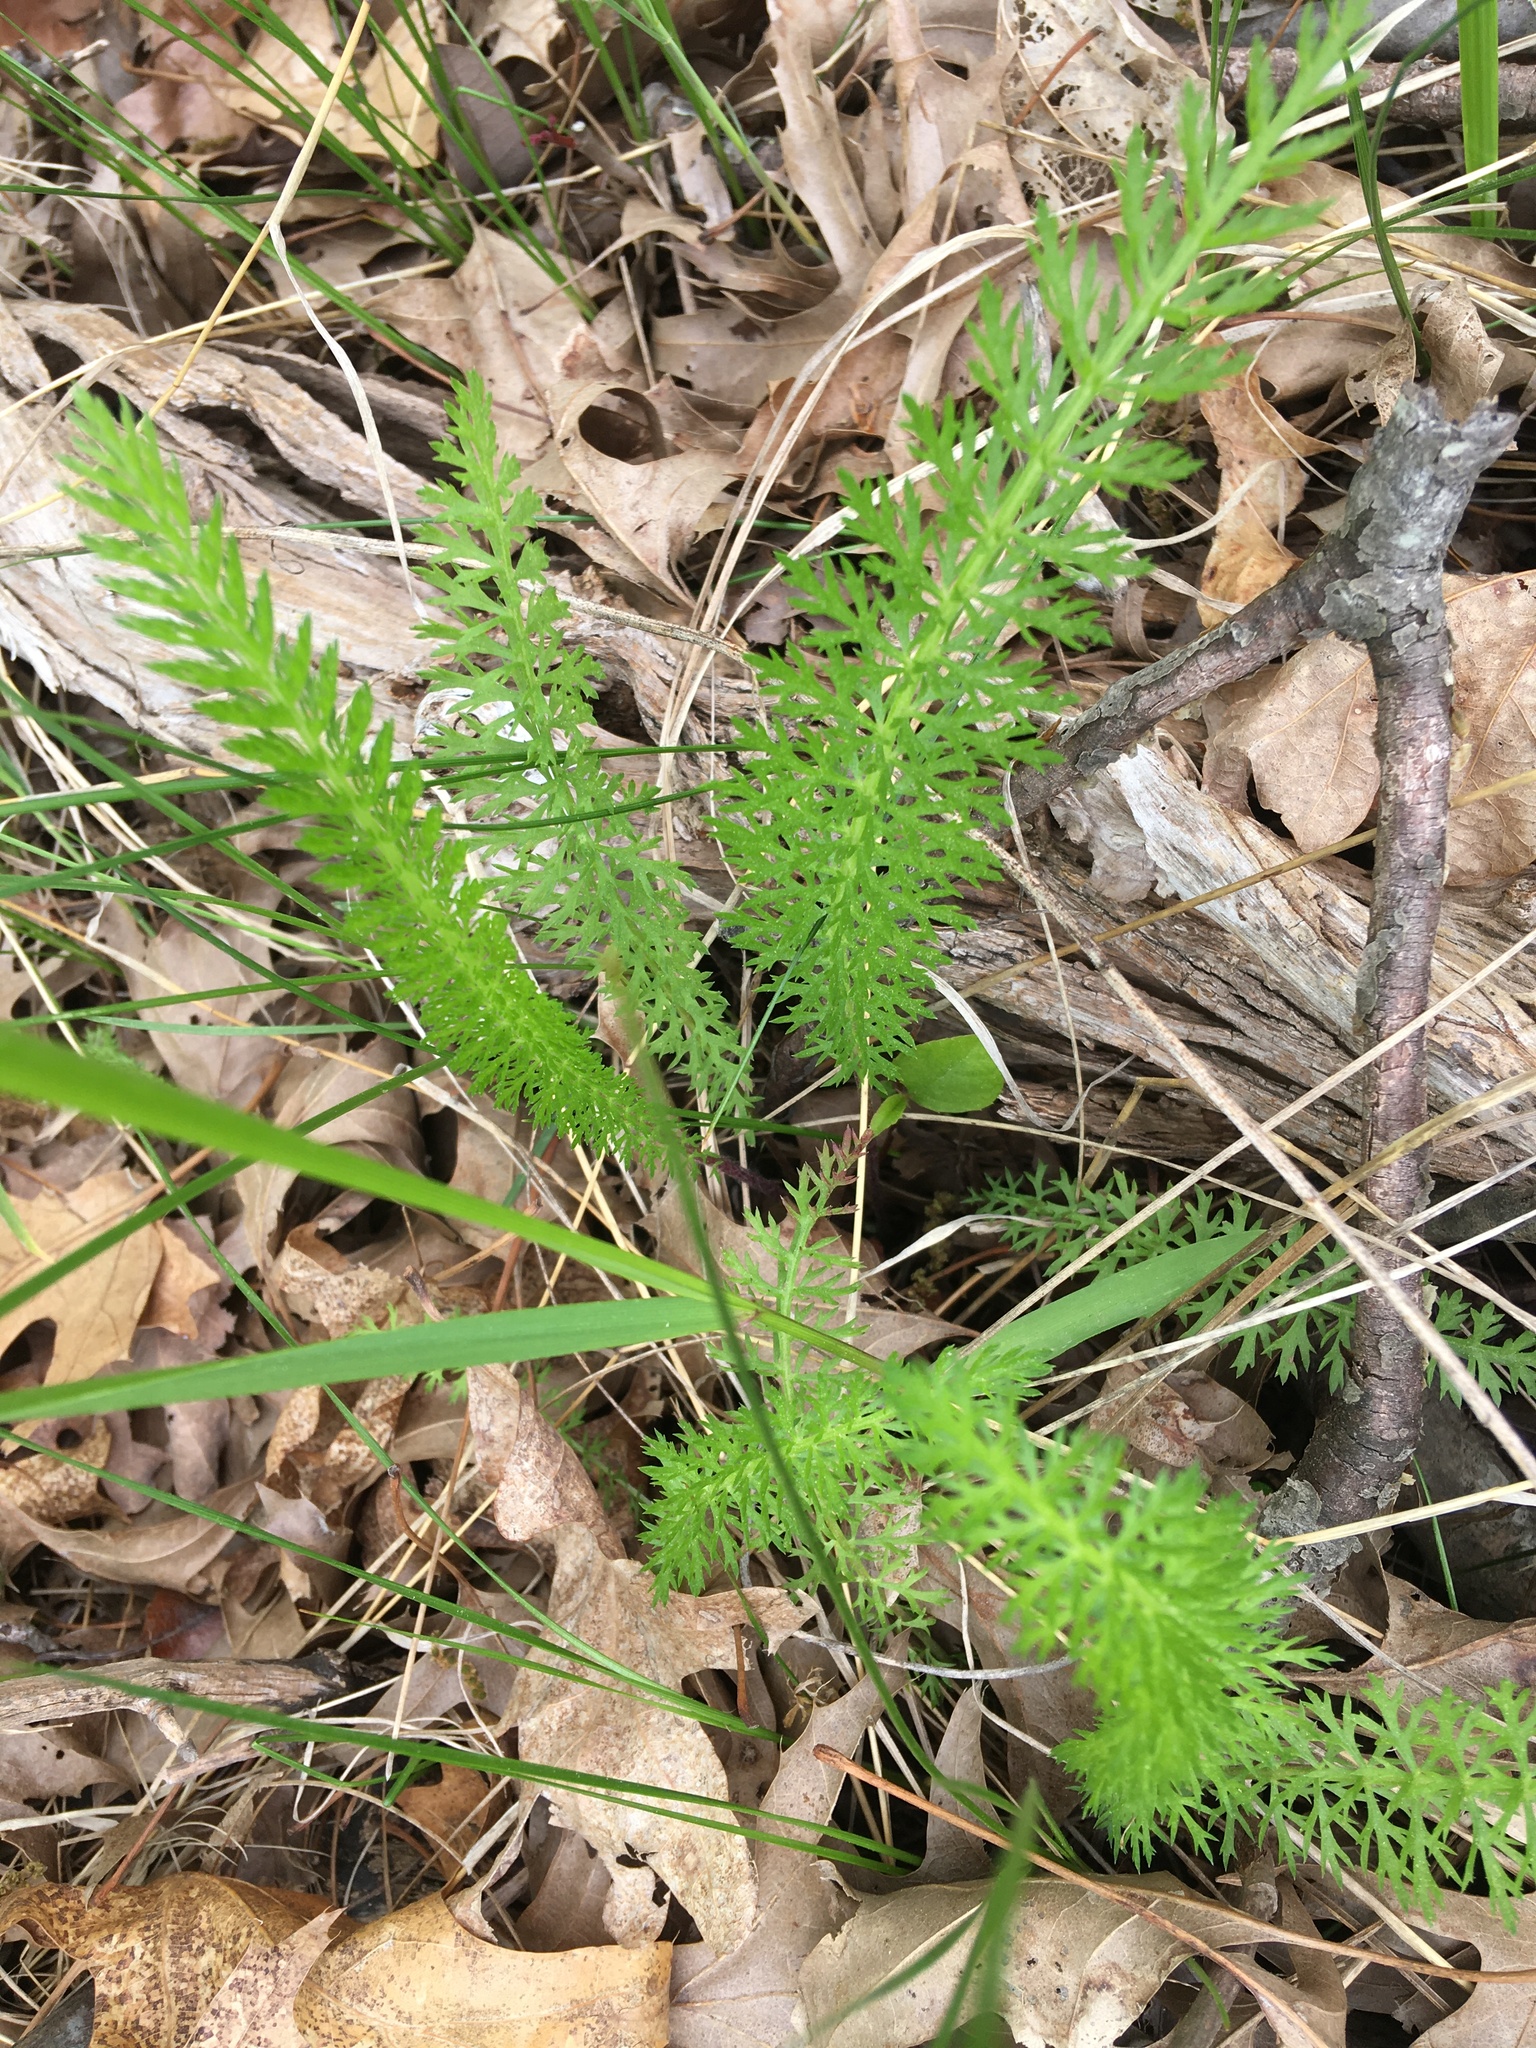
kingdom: Plantae
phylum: Tracheophyta
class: Magnoliopsida
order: Asterales
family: Asteraceae
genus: Achillea
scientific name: Achillea millefolium
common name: Yarrow
